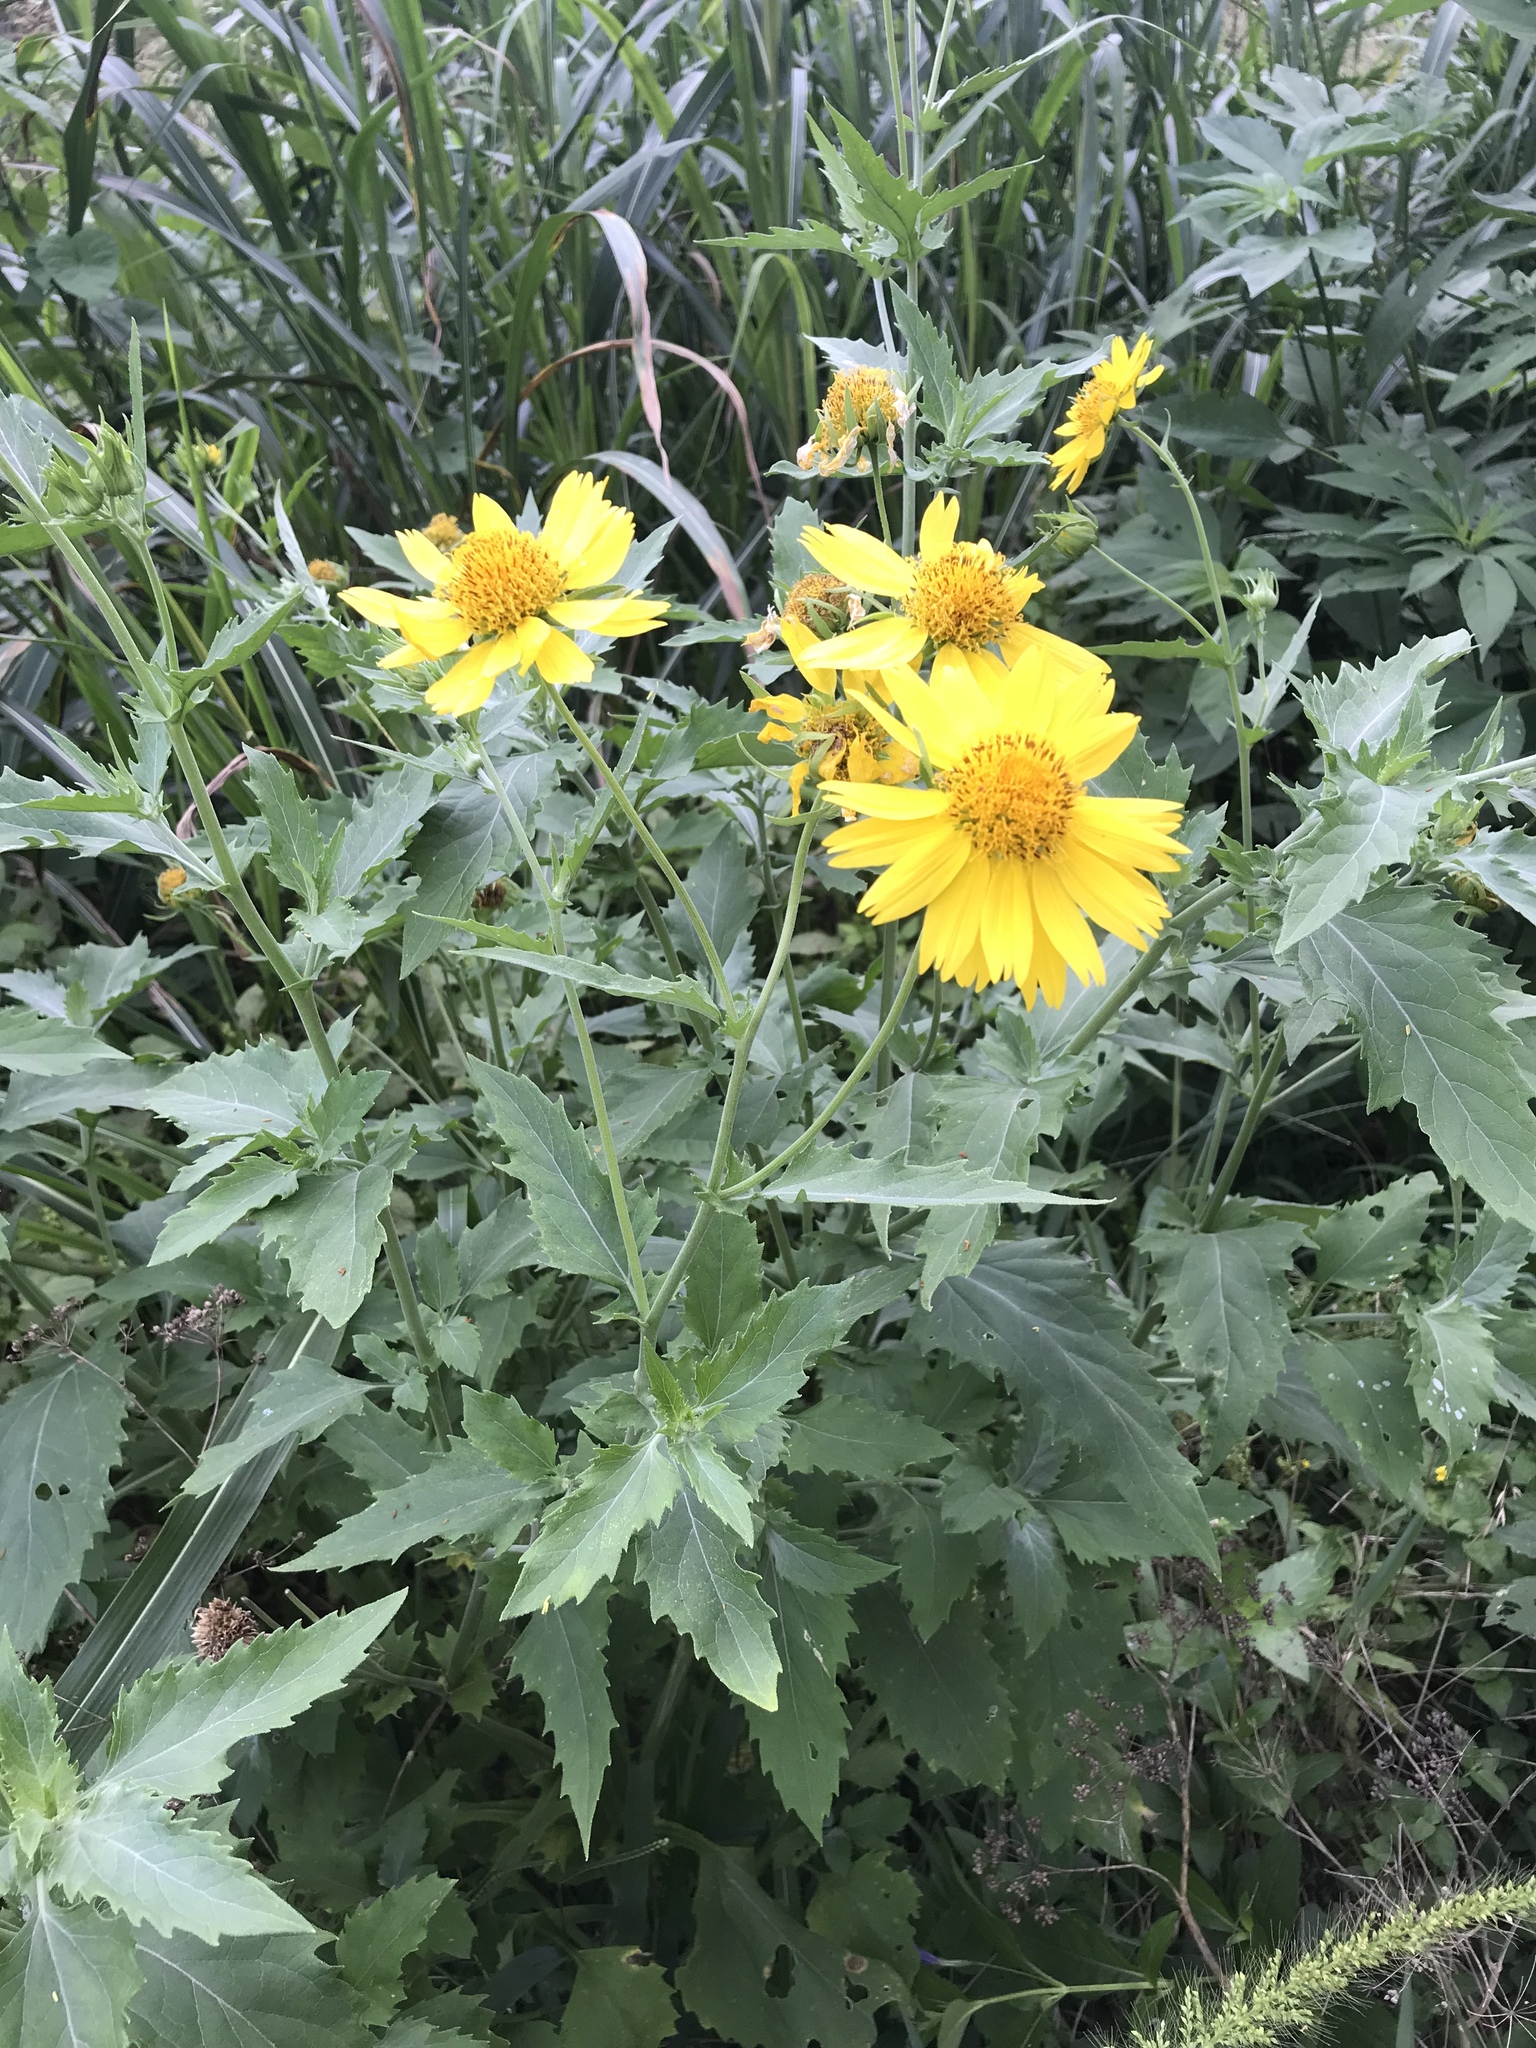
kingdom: Plantae
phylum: Tracheophyta
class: Magnoliopsida
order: Asterales
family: Asteraceae
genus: Verbesina
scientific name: Verbesina encelioides
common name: Golden crownbeard
